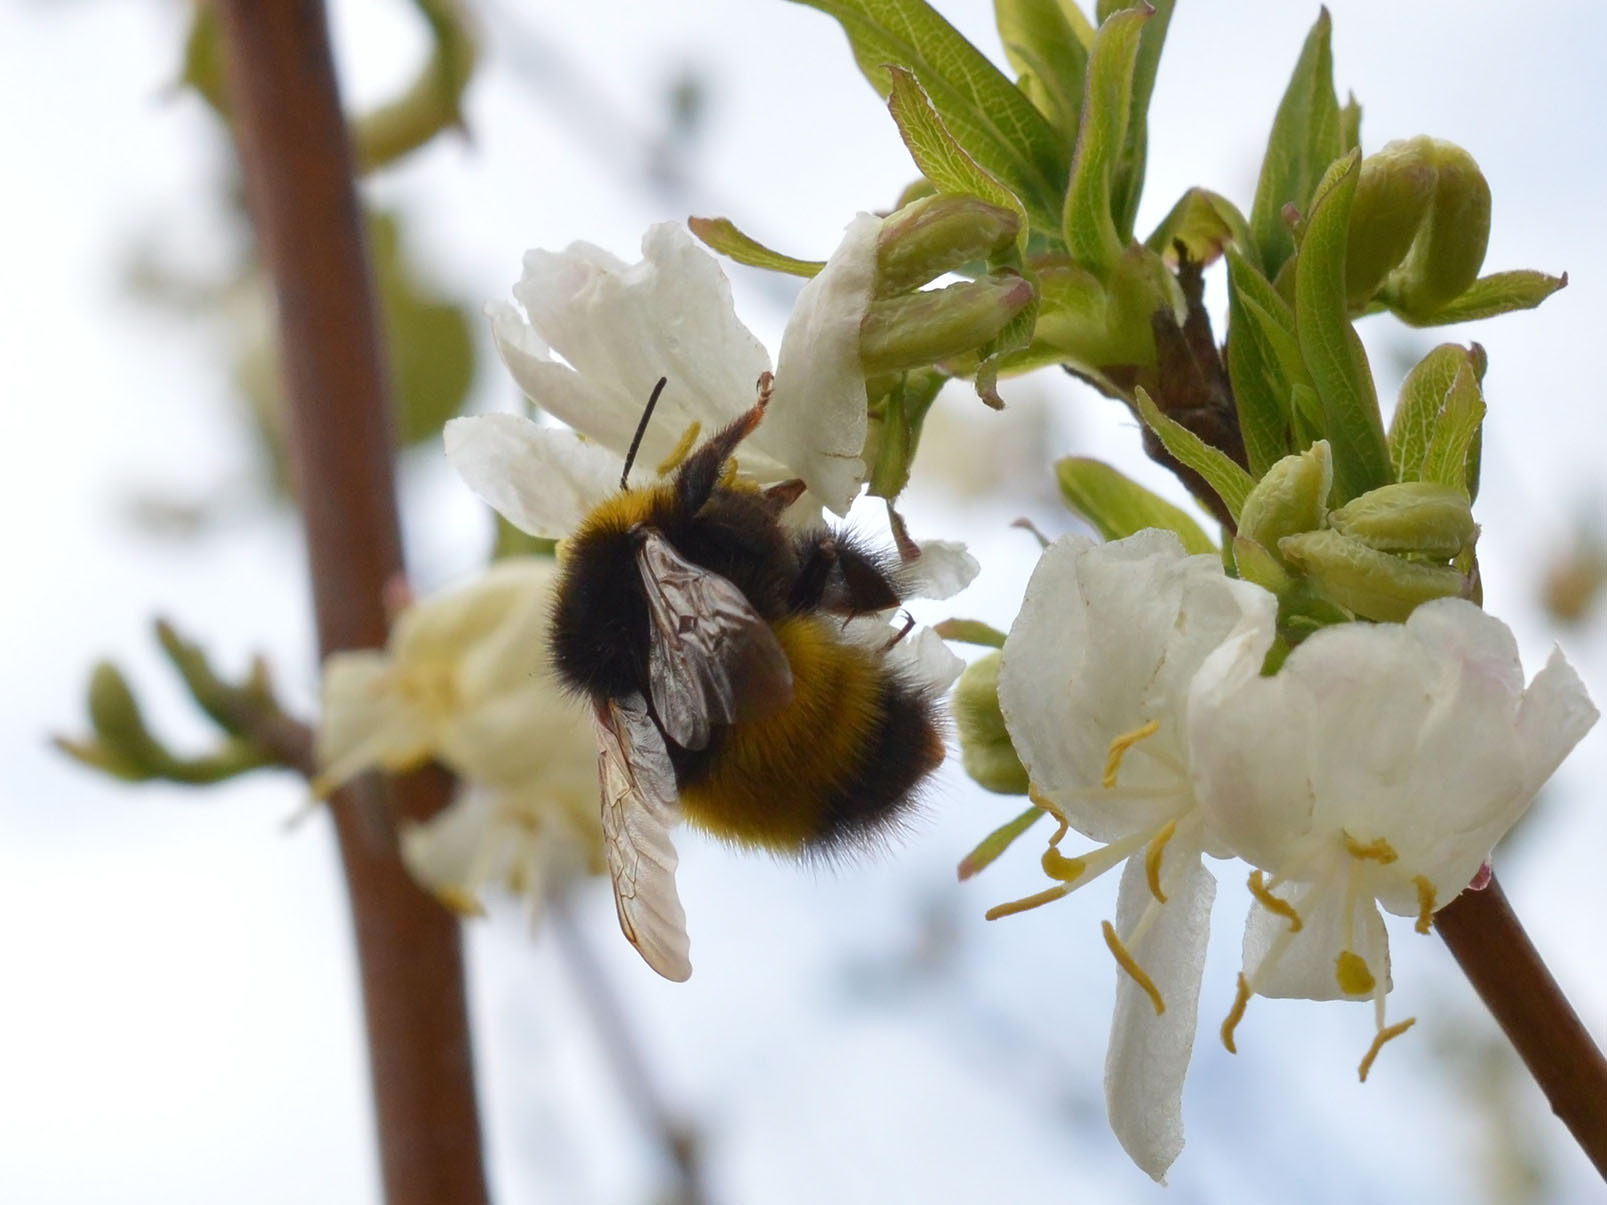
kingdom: Animalia
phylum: Arthropoda
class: Insecta
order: Hymenoptera
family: Apidae
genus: Bombus
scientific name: Bombus haematurus
